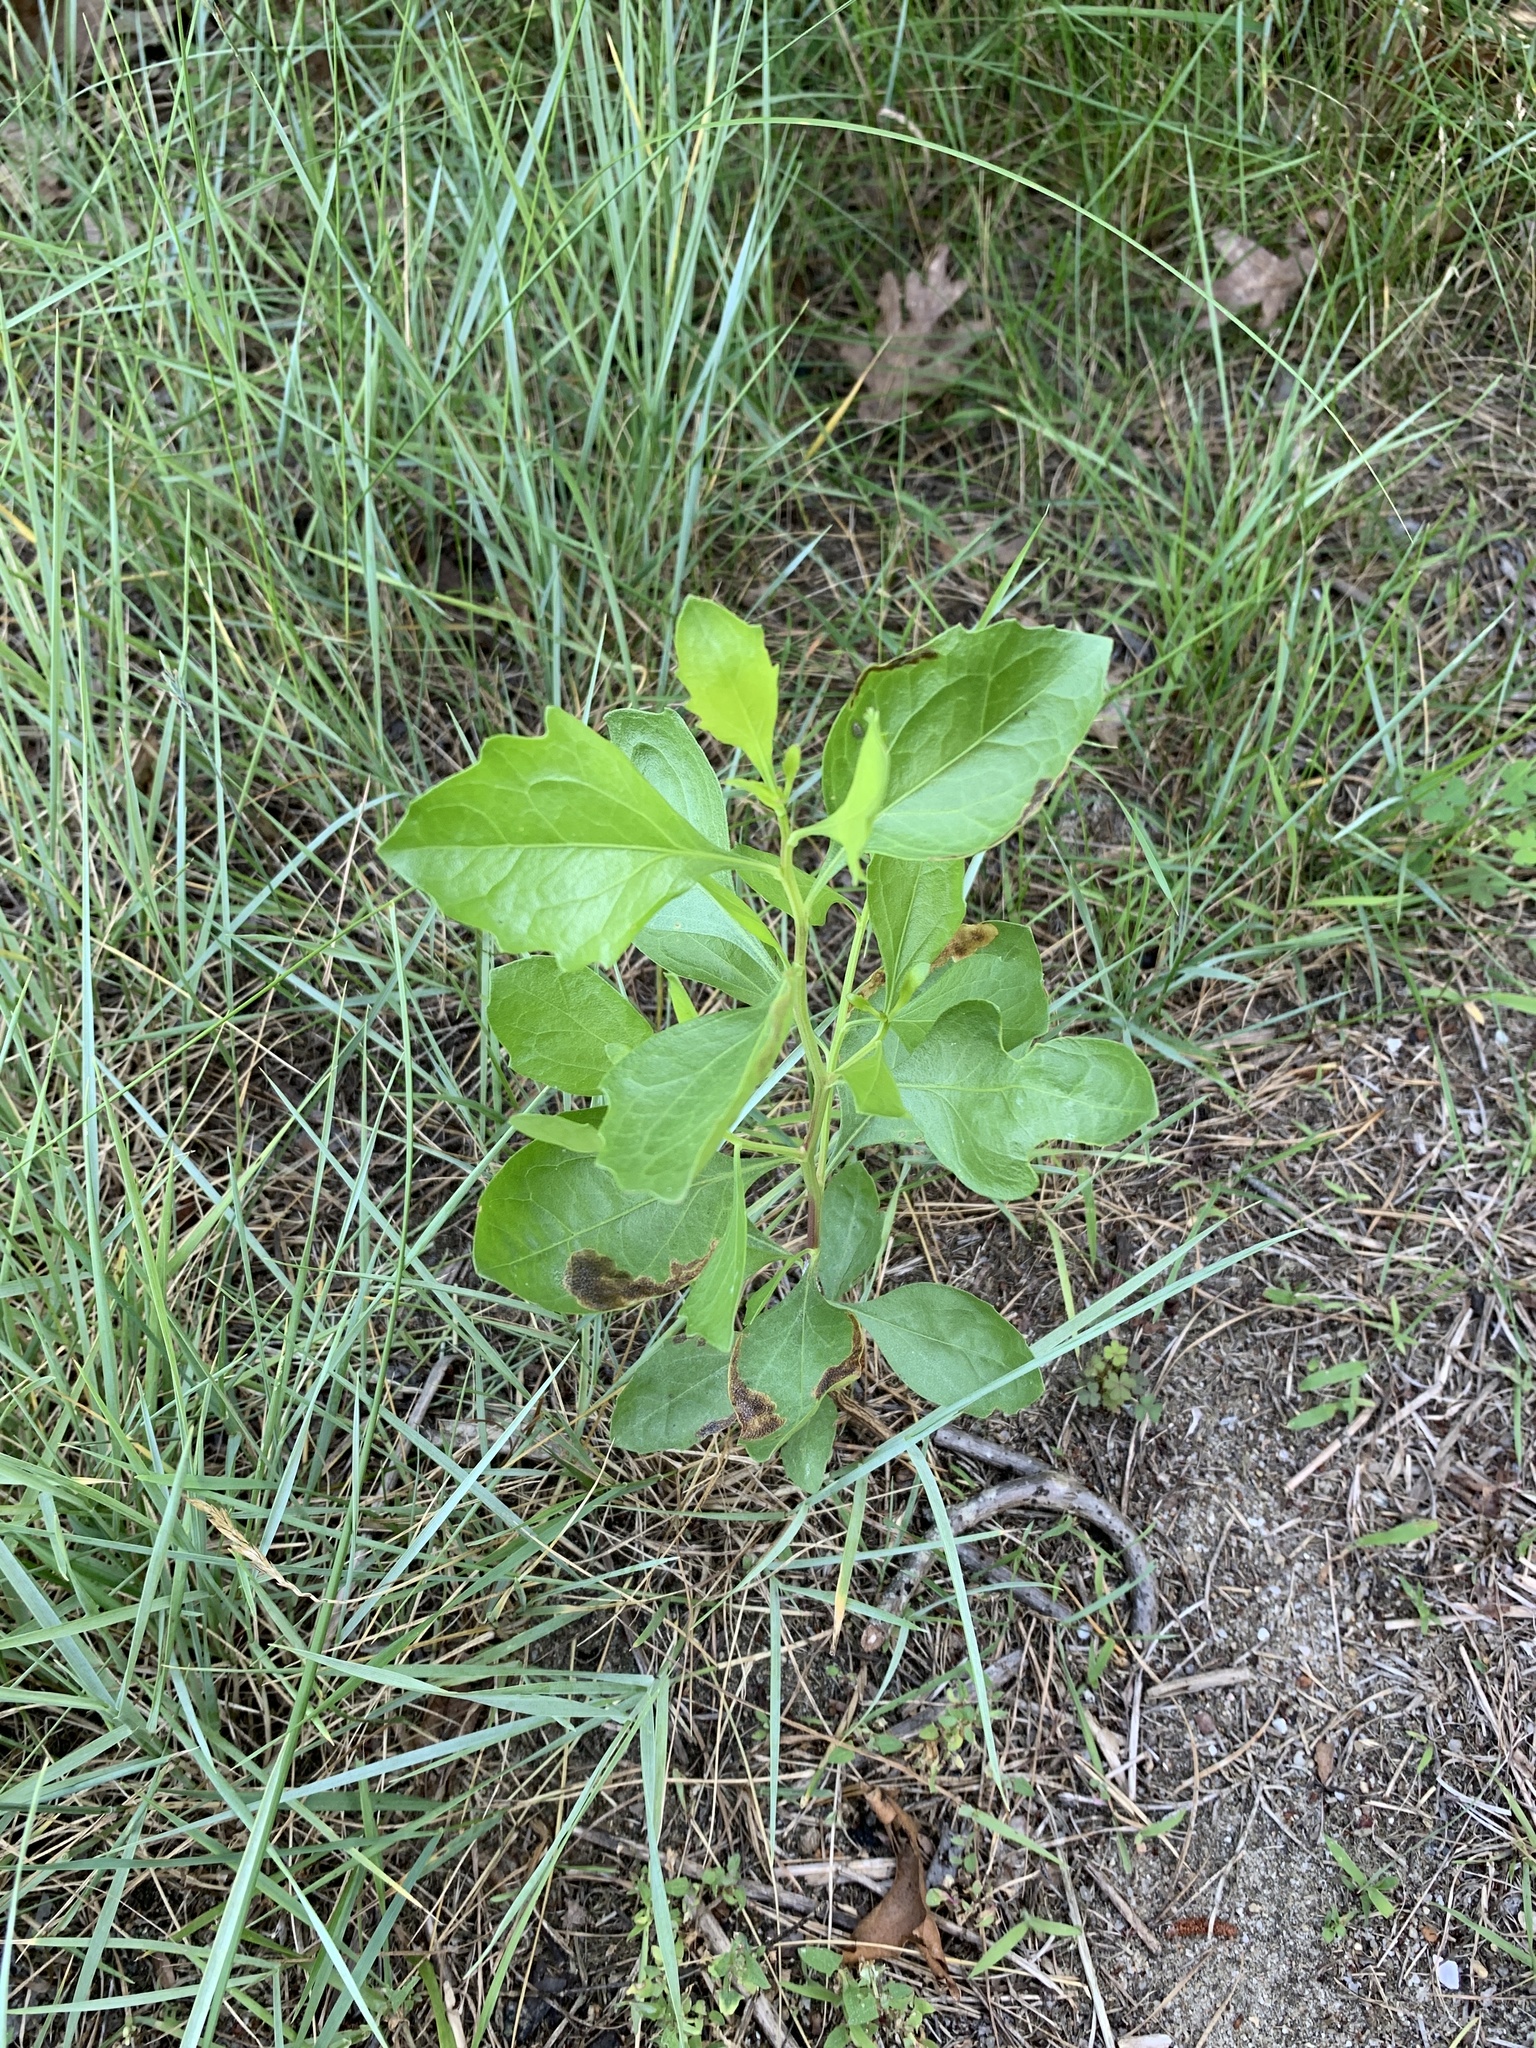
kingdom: Plantae
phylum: Tracheophyta
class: Magnoliopsida
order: Asterales
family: Asteraceae
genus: Baccharis
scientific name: Baccharis halimifolia
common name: Eastern baccharis
